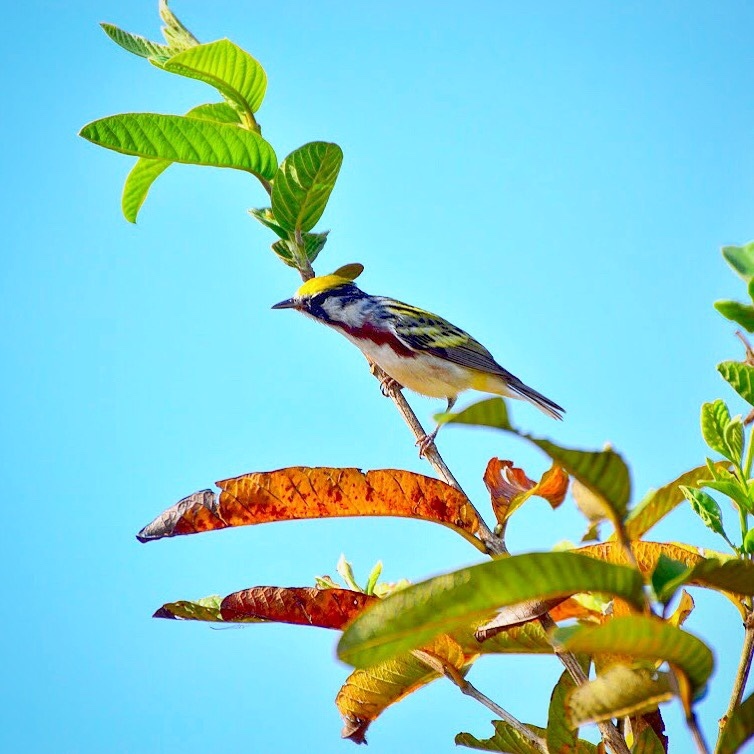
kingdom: Animalia
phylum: Chordata
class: Aves
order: Passeriformes
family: Parulidae
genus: Setophaga
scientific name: Setophaga pensylvanica
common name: Chestnut-sided warbler
